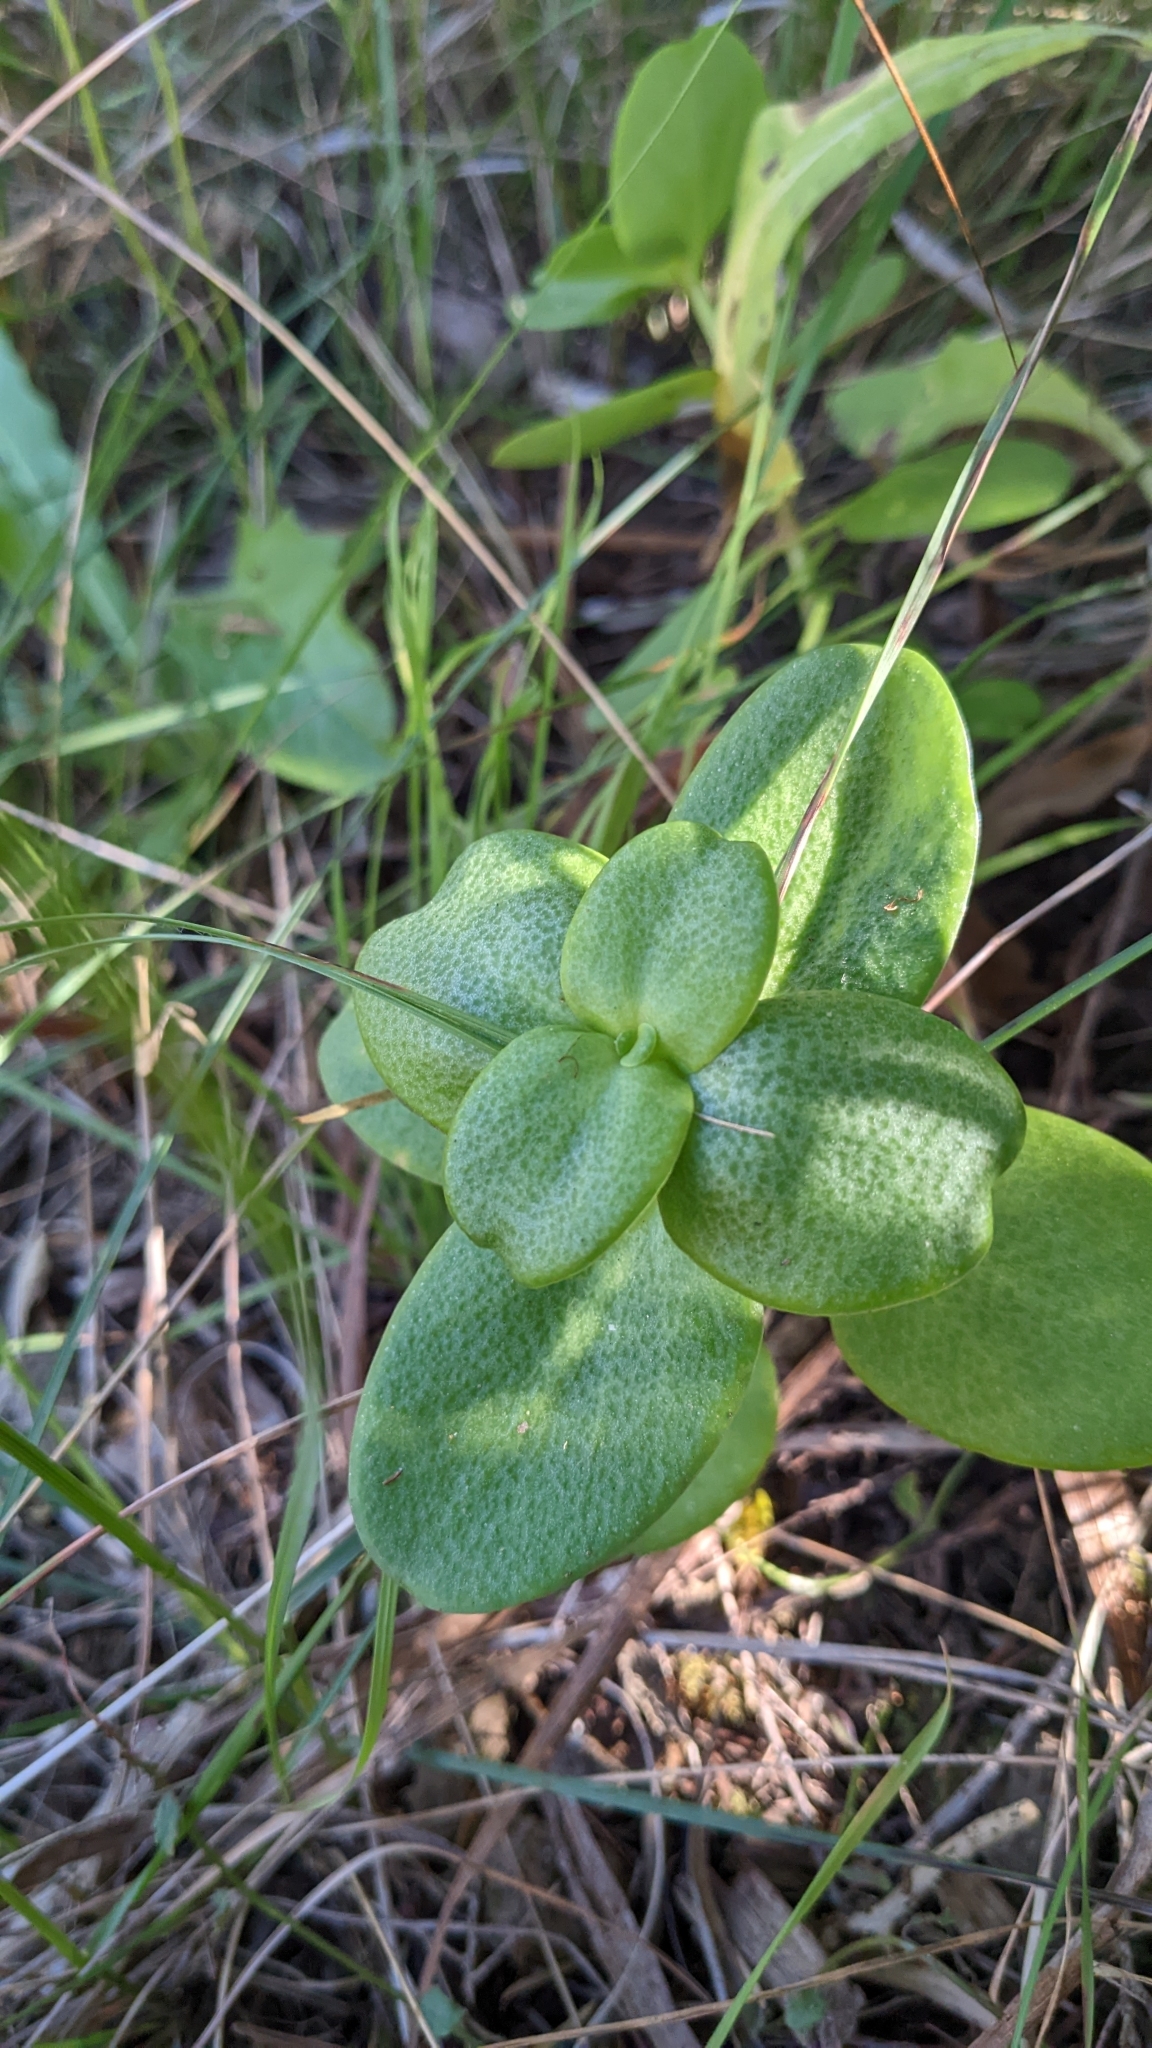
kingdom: Plantae
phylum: Tracheophyta
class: Magnoliopsida
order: Saxifragales
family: Crassulaceae
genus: Crassula
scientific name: Crassula multicava
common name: Cape province pygmyweed
